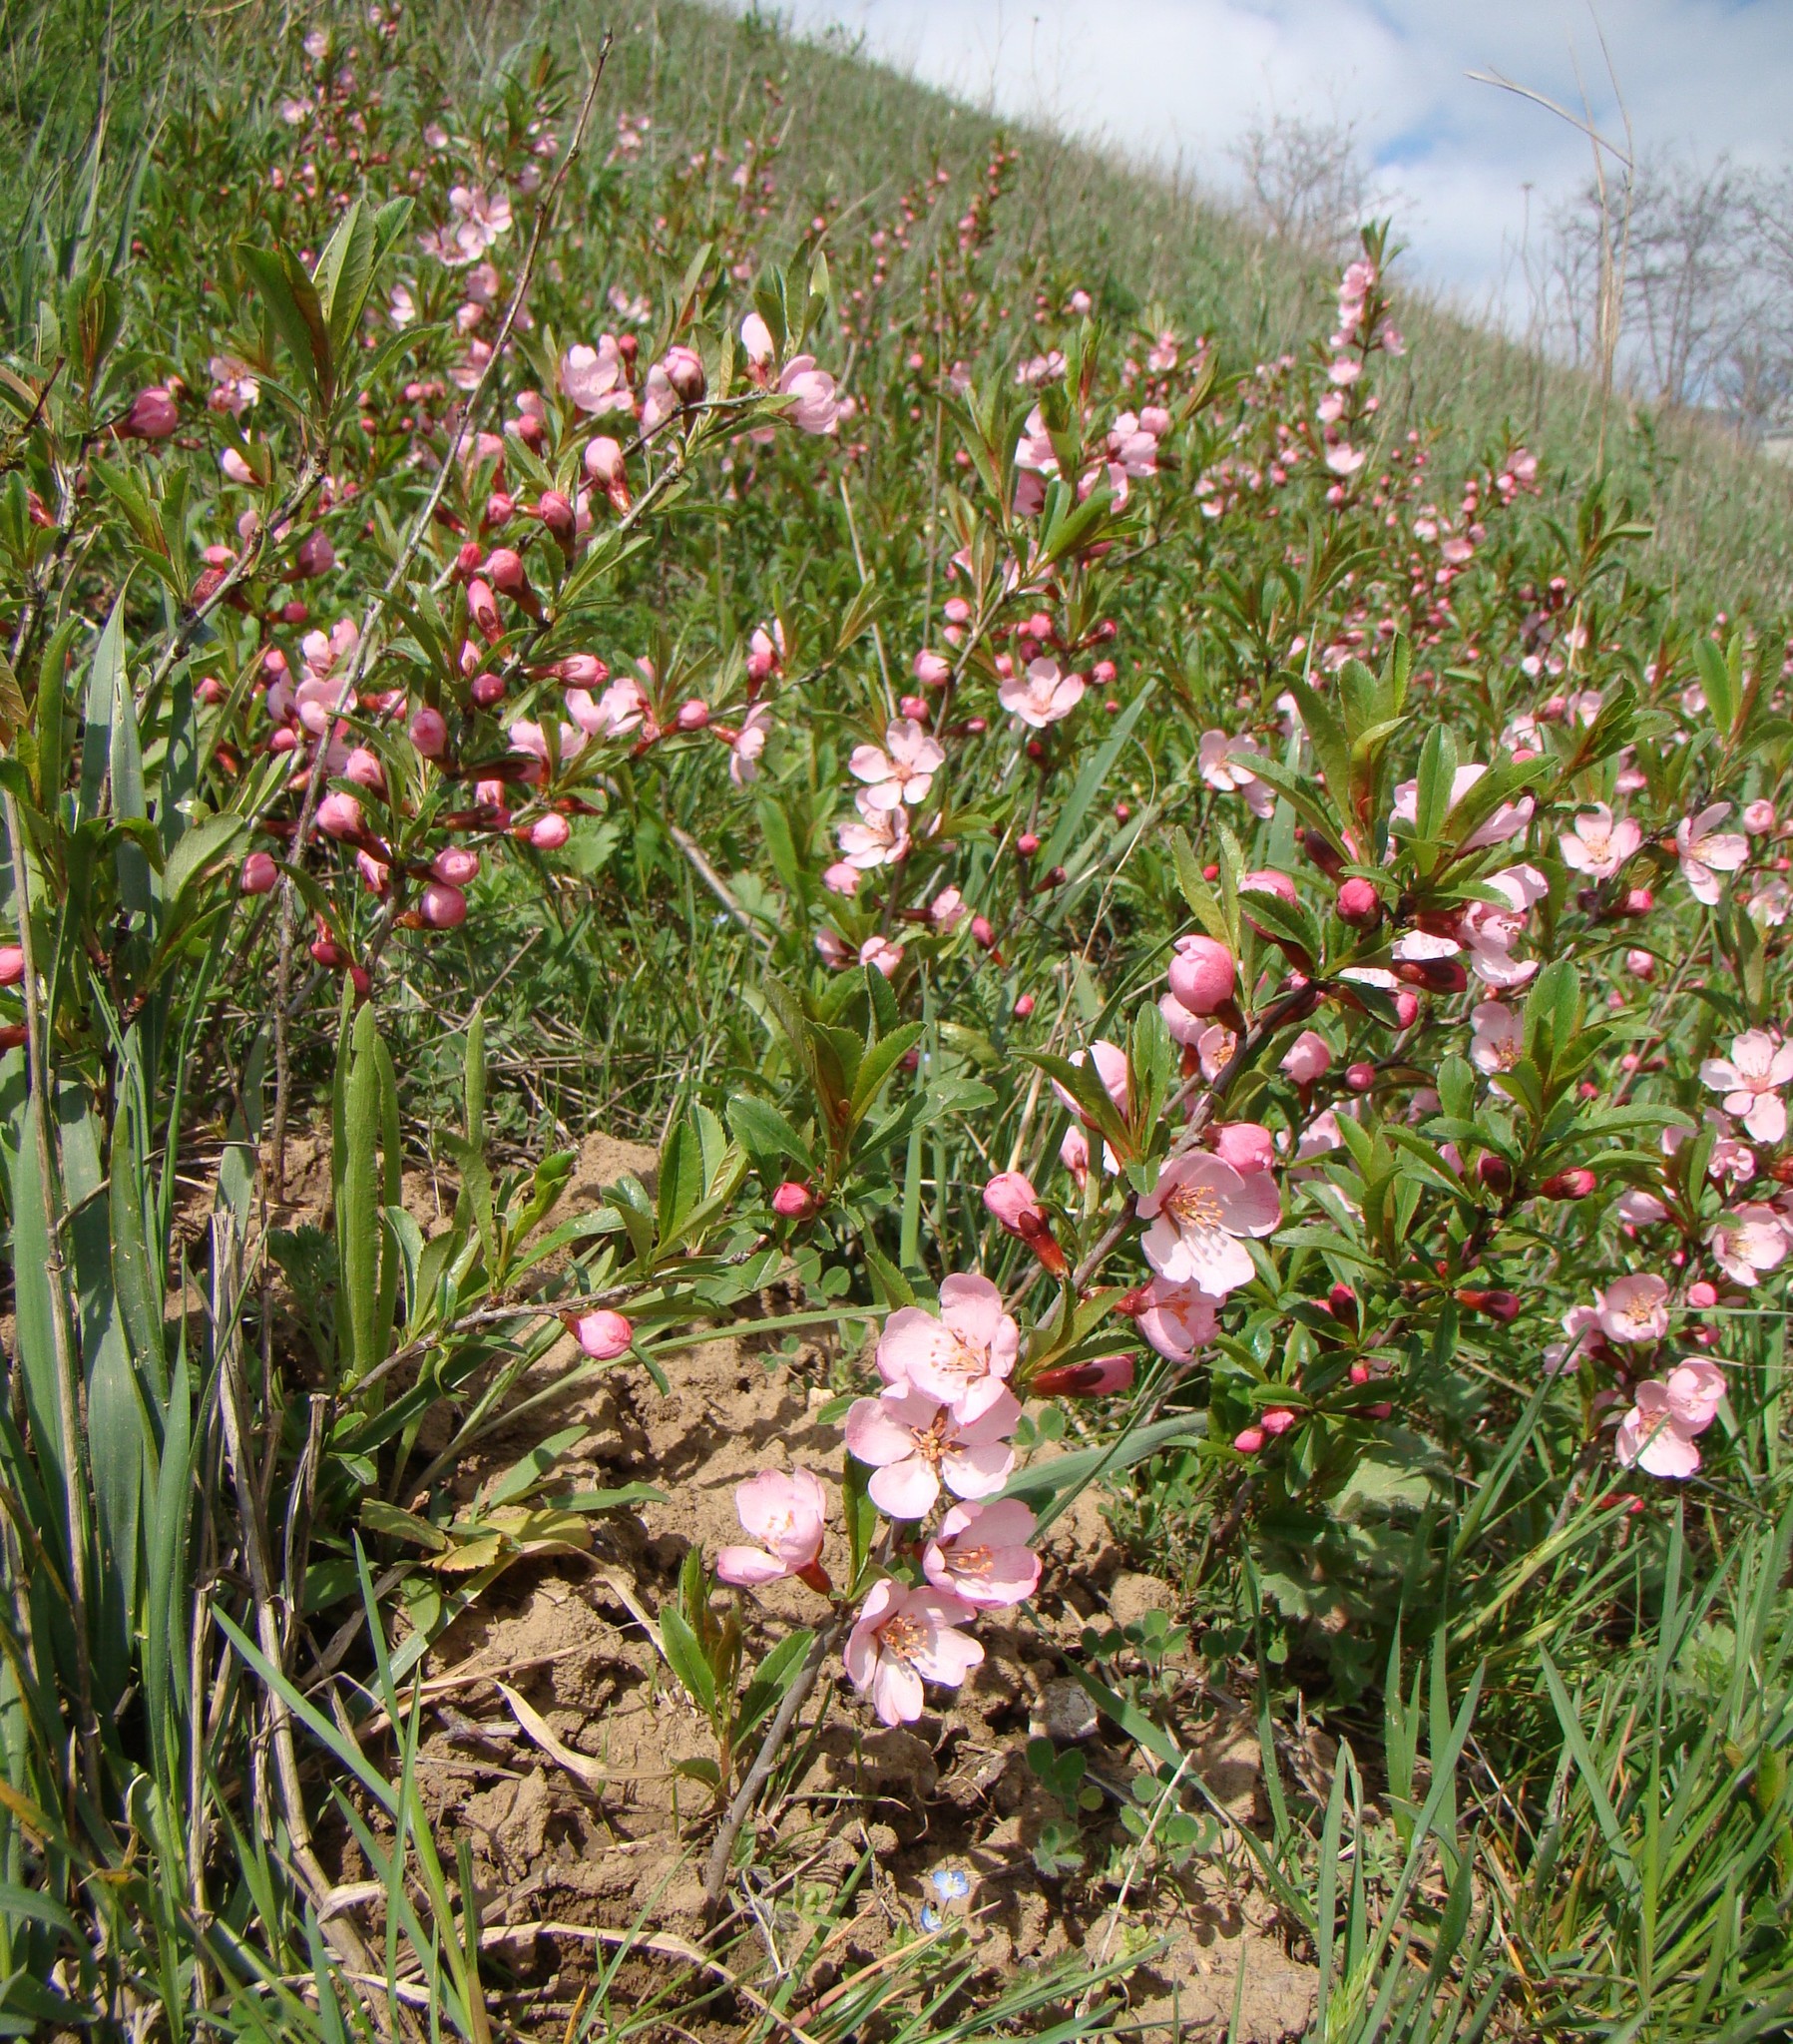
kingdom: Plantae
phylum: Tracheophyta
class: Magnoliopsida
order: Rosales
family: Rosaceae
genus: Prunus
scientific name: Prunus tenella
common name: Dwarf russian almond
